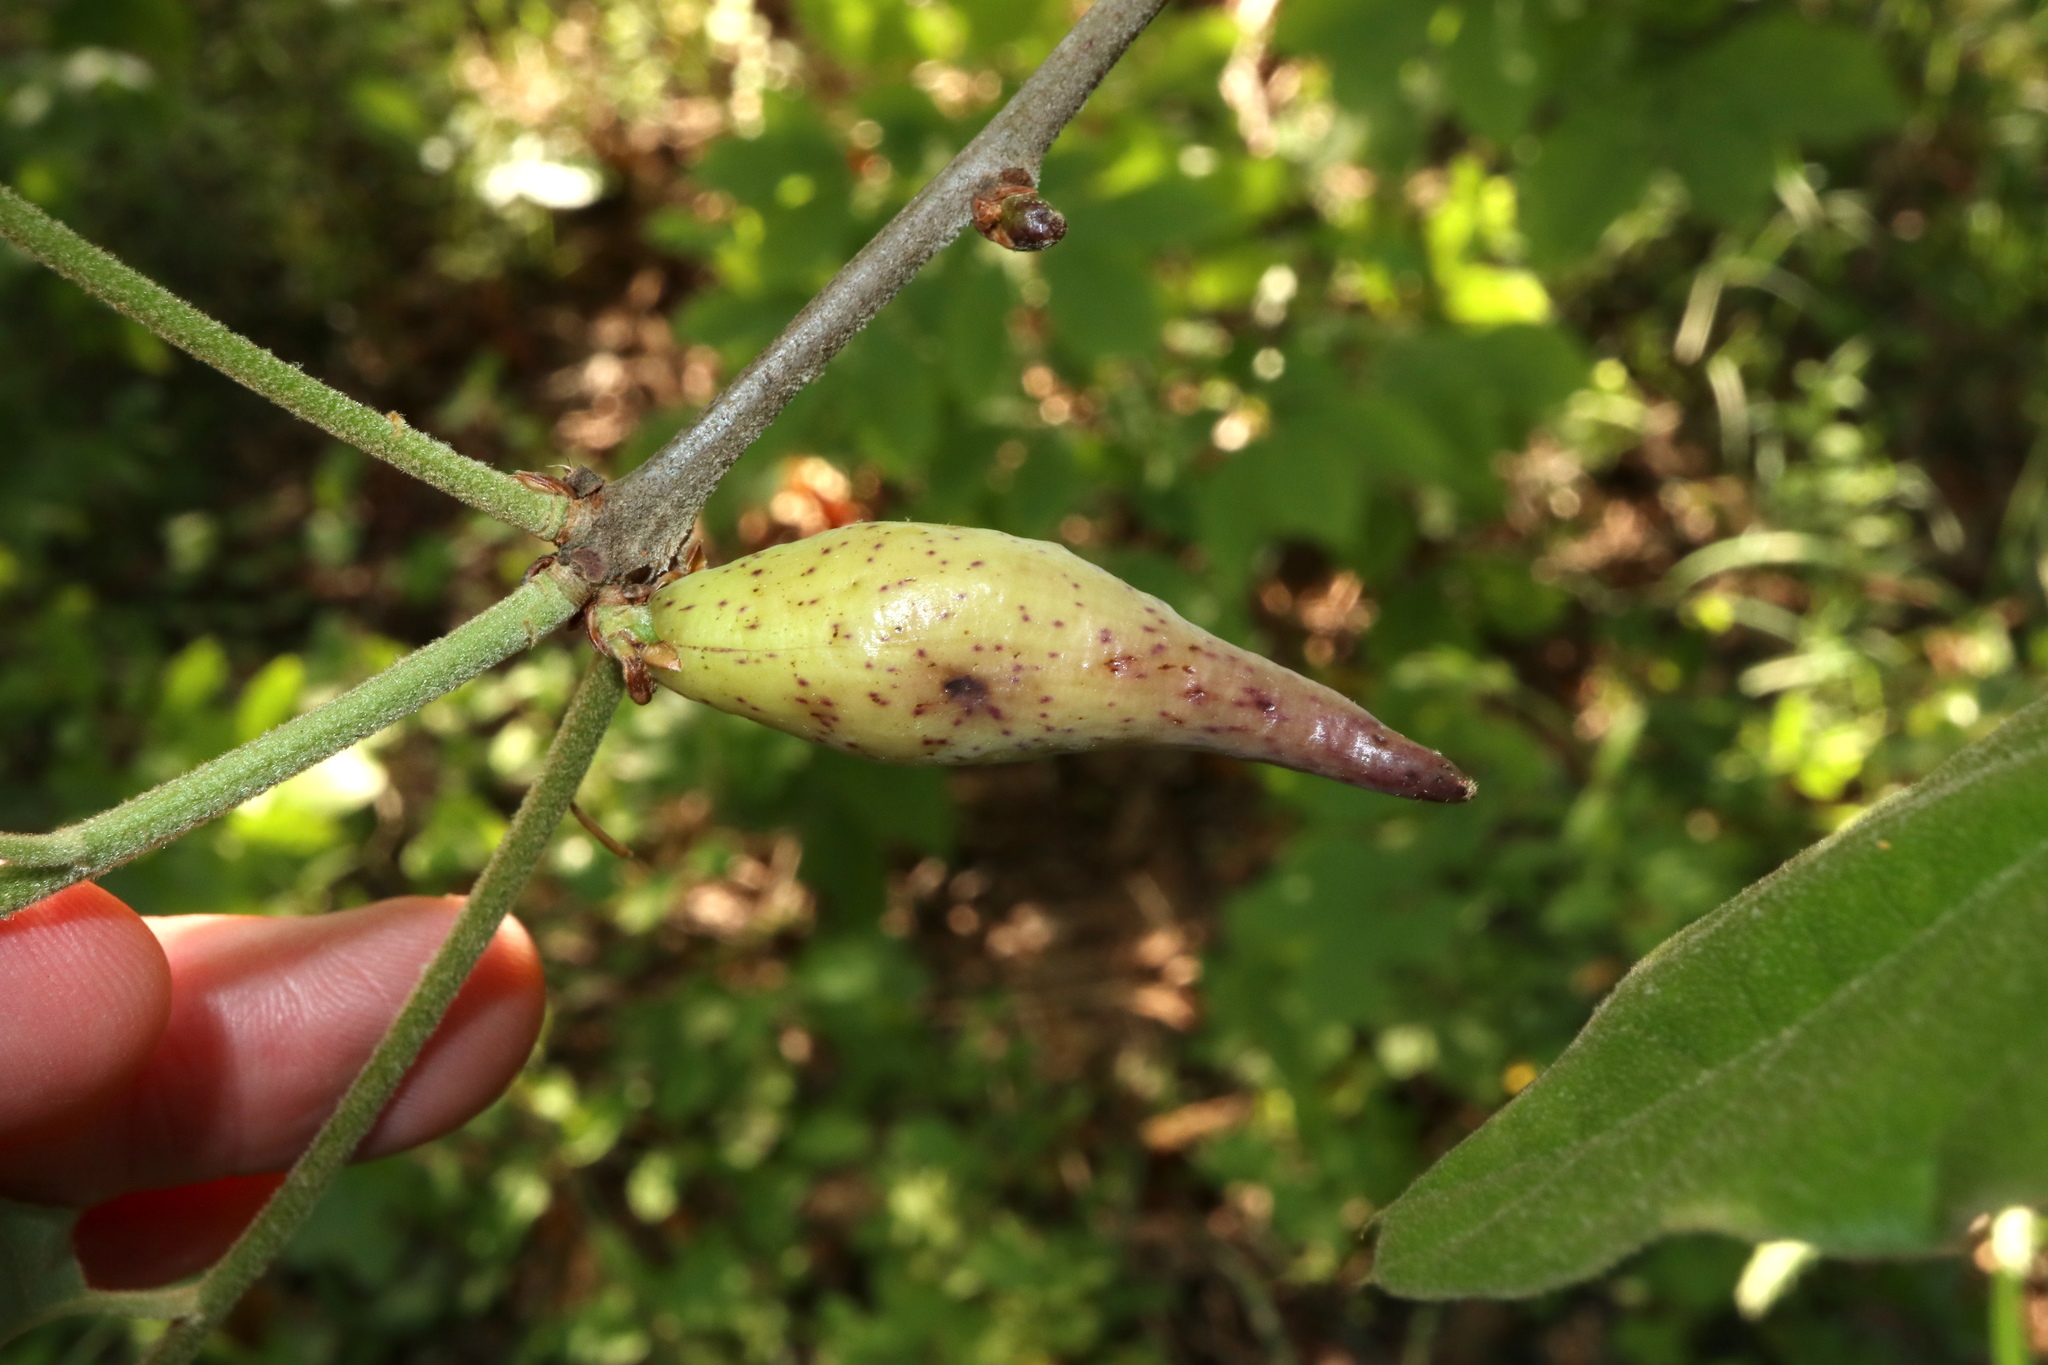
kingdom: Animalia
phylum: Arthropoda
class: Insecta
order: Hymenoptera
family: Cynipidae
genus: Amphibolips
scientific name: Amphibolips
